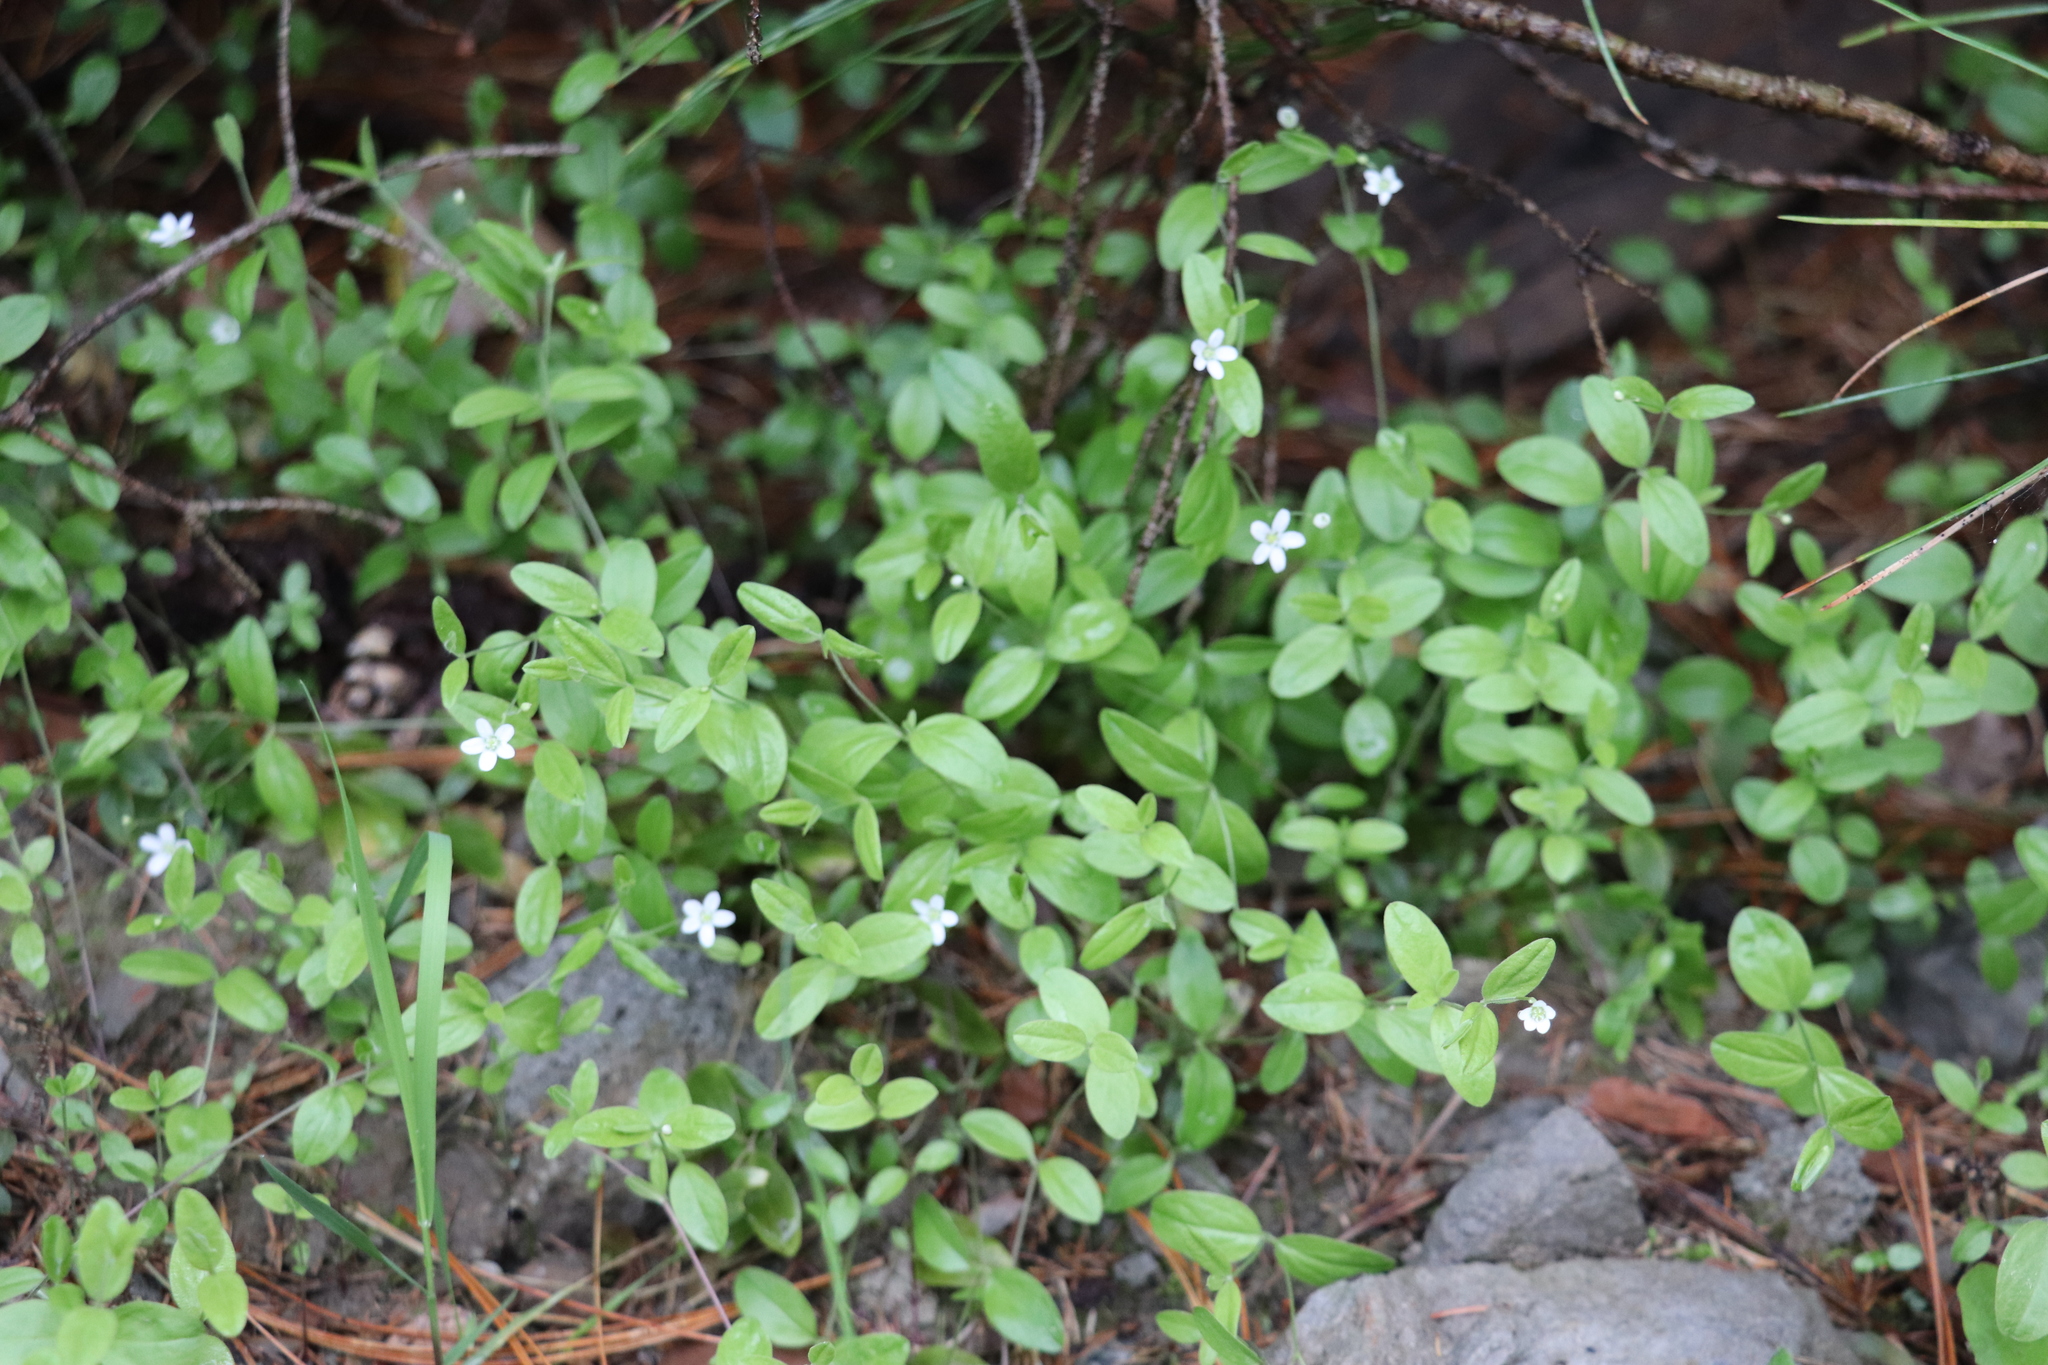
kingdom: Plantae
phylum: Tracheophyta
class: Magnoliopsida
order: Caryophyllales
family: Caryophyllaceae
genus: Moehringia
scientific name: Moehringia lateriflora
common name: Blunt-leaved sandwort
